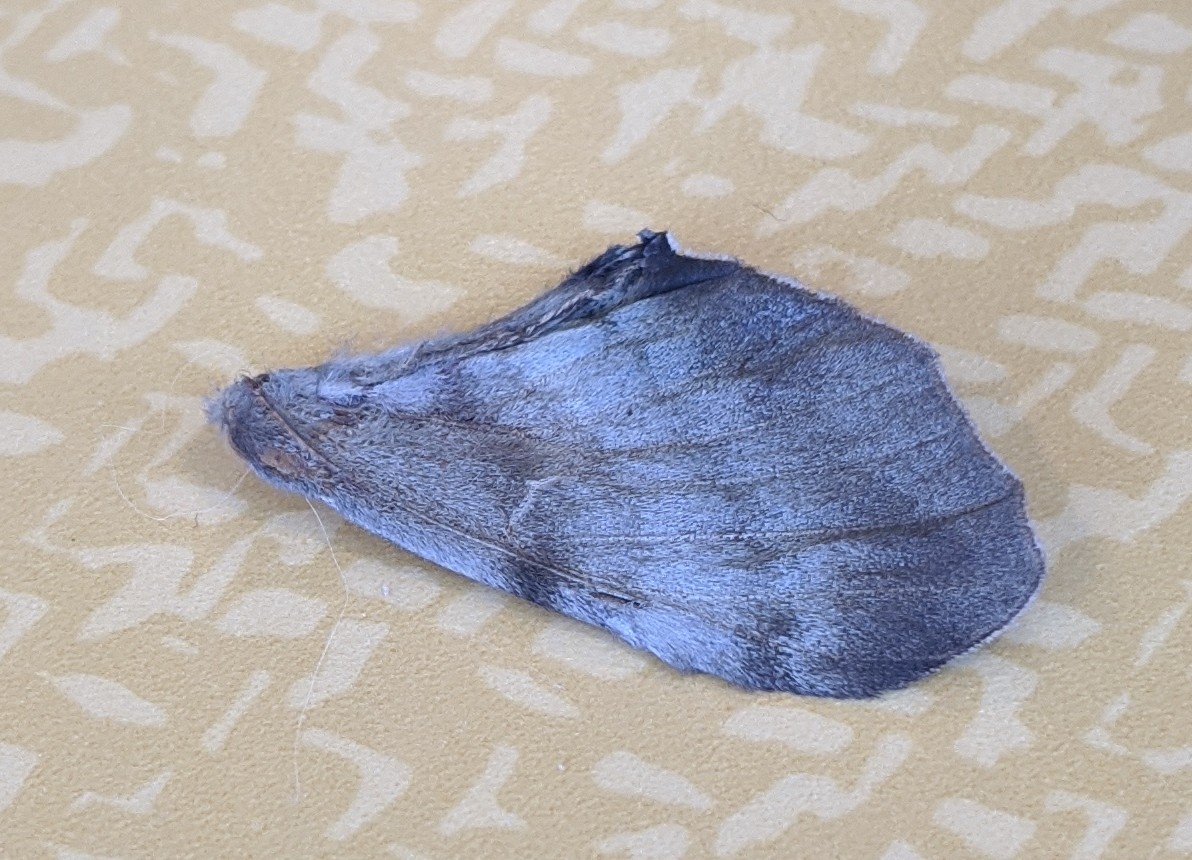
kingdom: Animalia
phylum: Arthropoda
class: Insecta
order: Lepidoptera
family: Sphingidae
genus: Pachysphinx
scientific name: Pachysphinx modesta
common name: Big poplar sphinx
